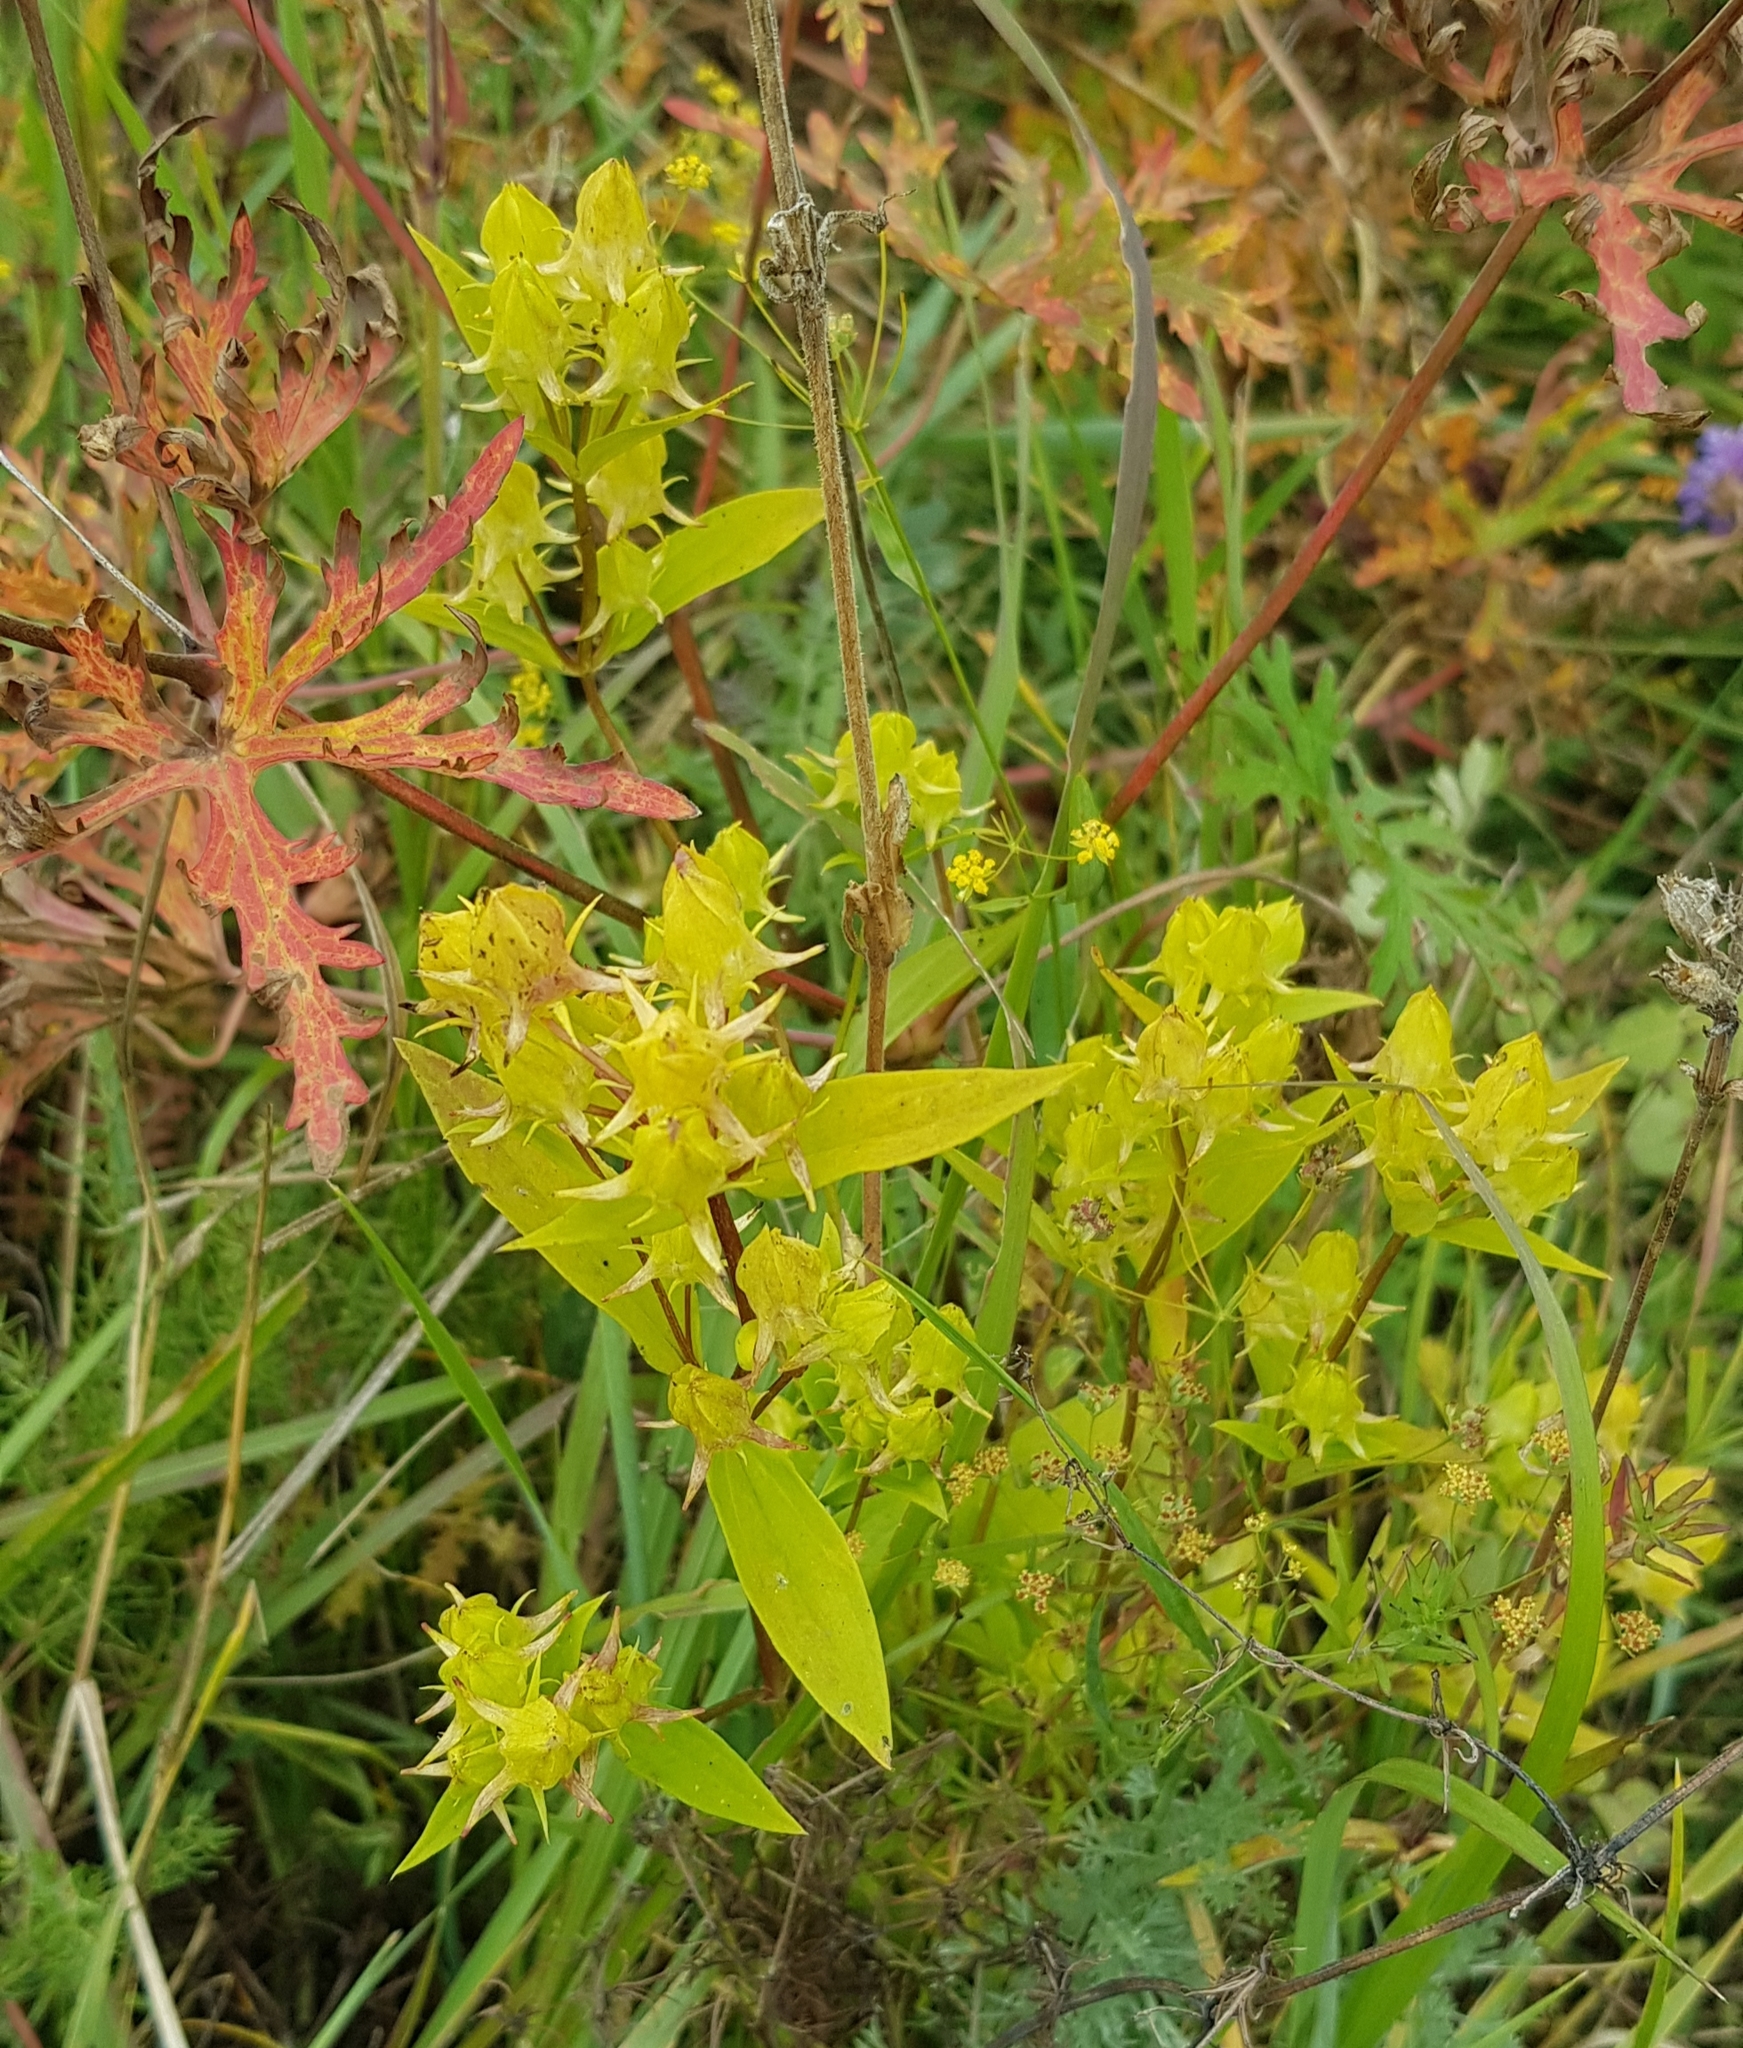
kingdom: Plantae
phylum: Tracheophyta
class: Magnoliopsida
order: Gentianales
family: Gentianaceae
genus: Halenia
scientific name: Halenia corniculata
